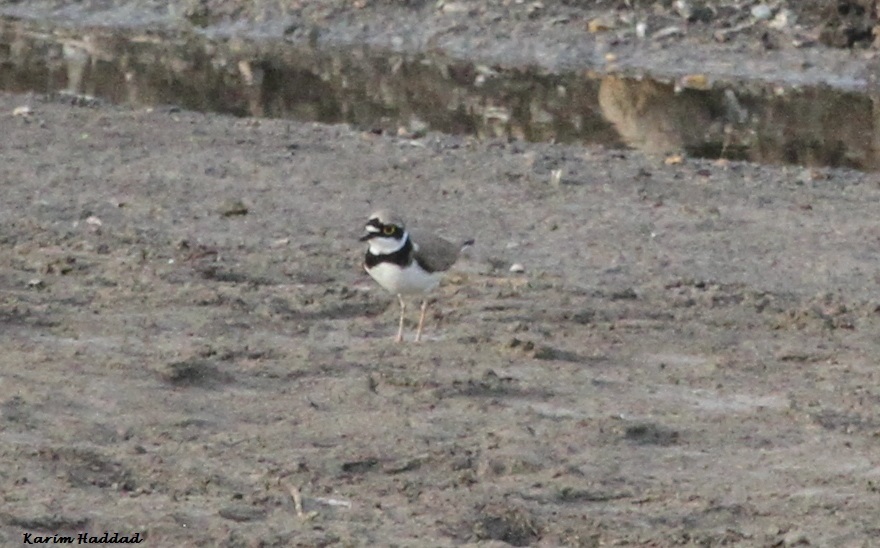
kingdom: Animalia
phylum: Chordata
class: Aves
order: Charadriiformes
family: Charadriidae
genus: Charadrius
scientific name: Charadrius dubius
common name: Little ringed plover
